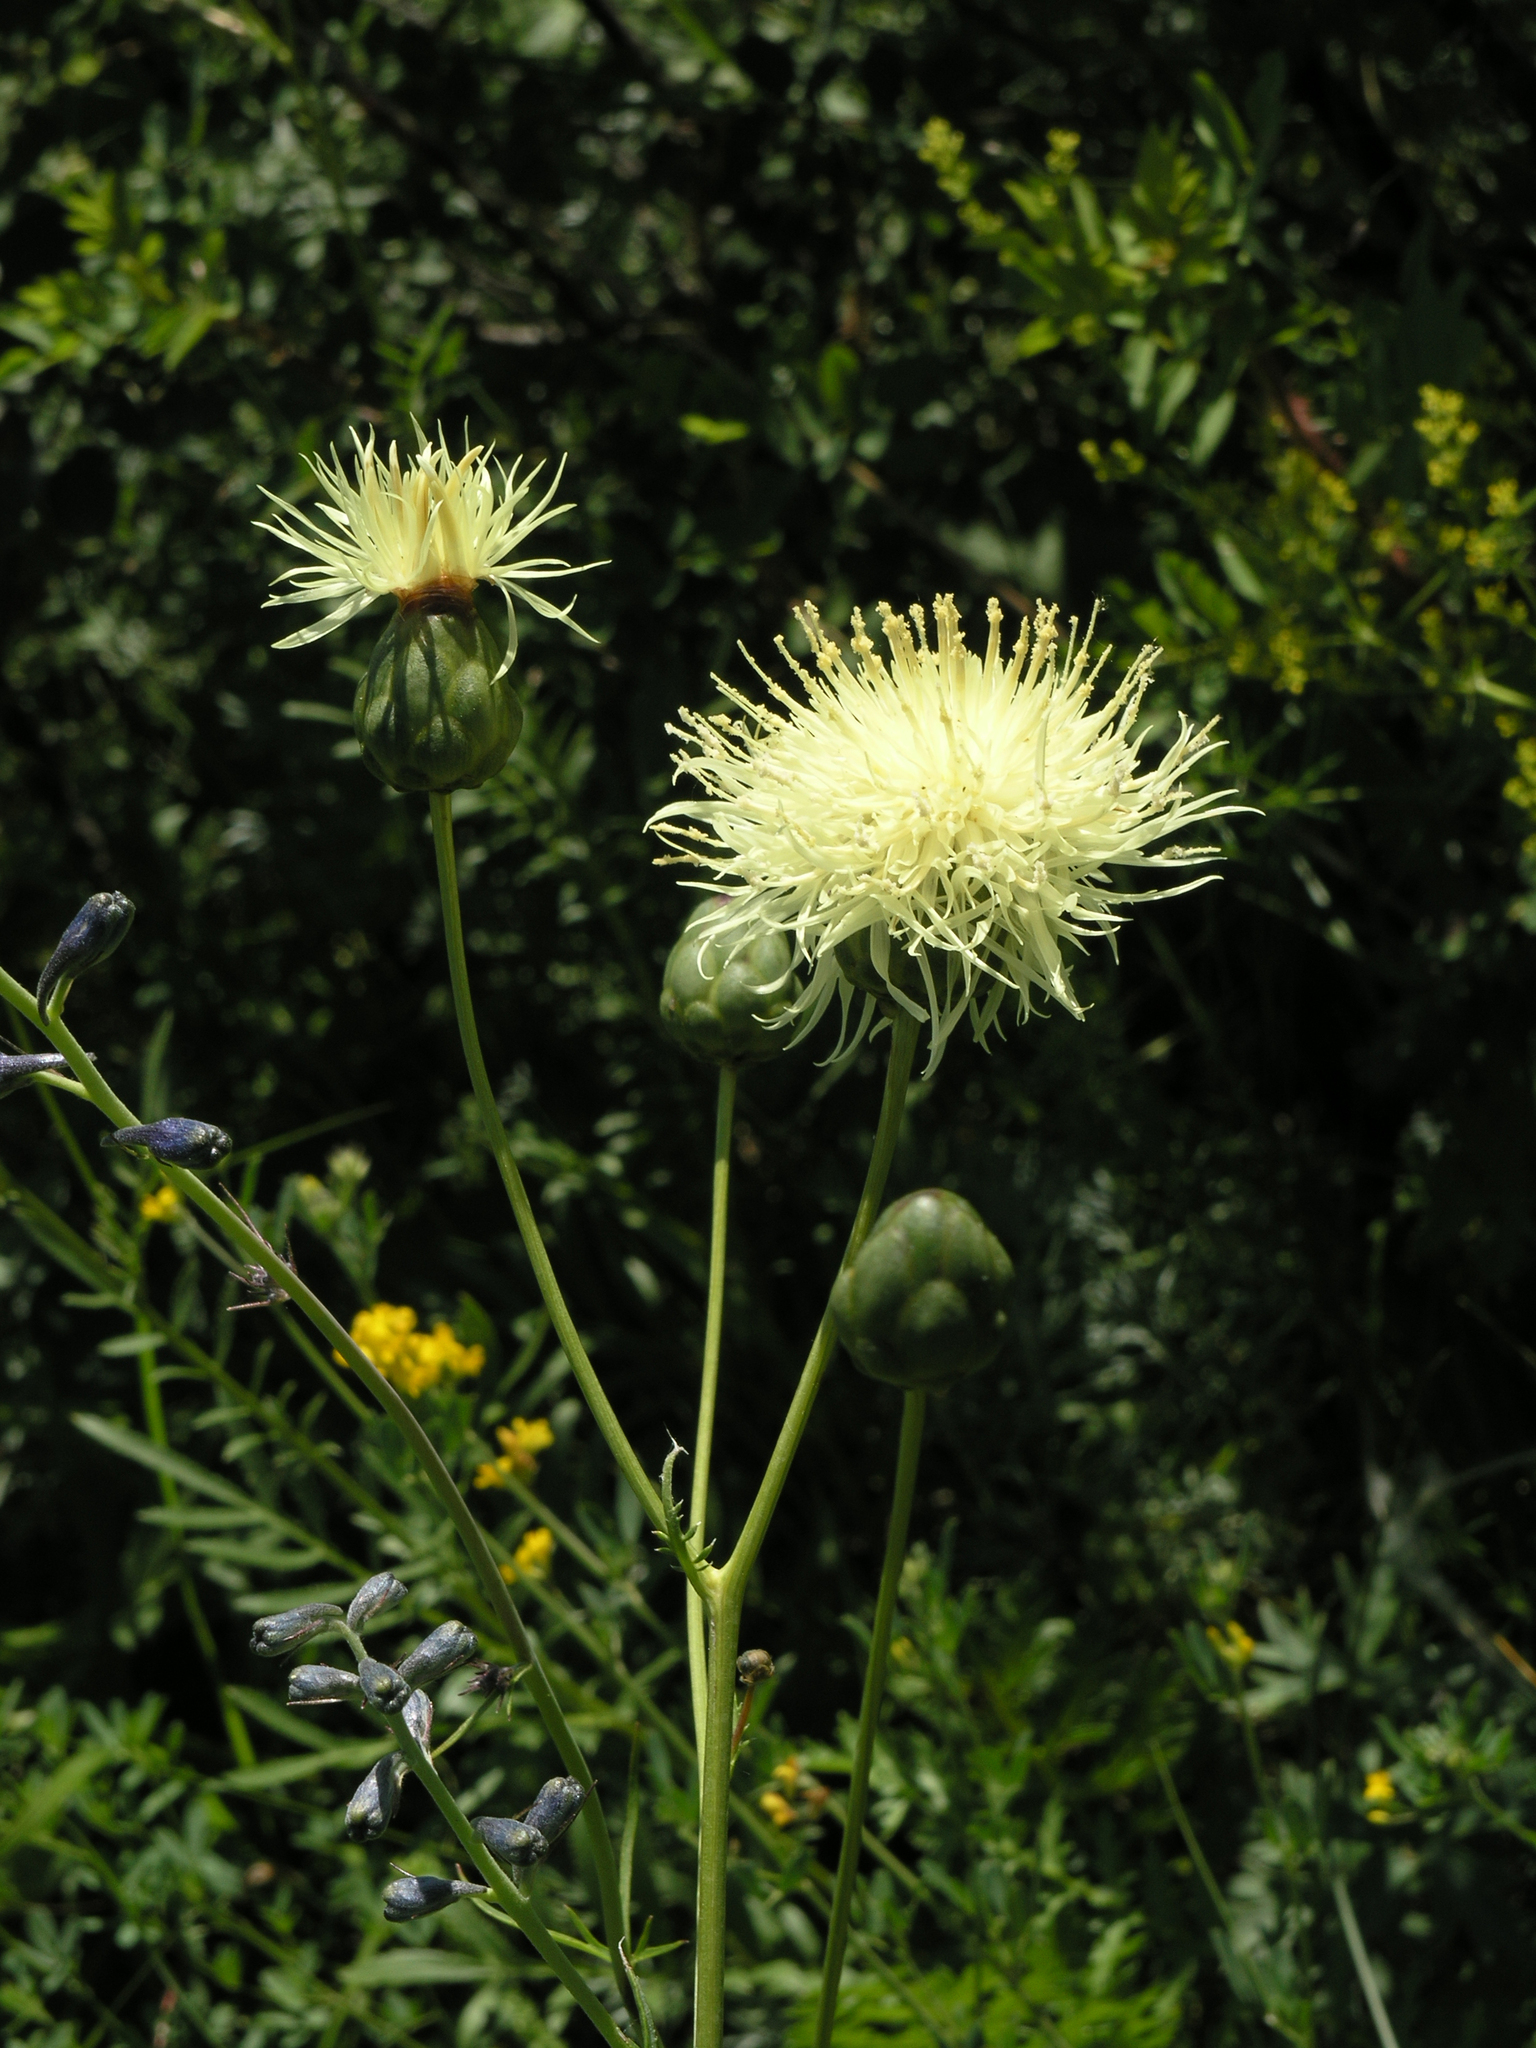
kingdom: Plantae
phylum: Tracheophyta
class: Magnoliopsida
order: Asterales
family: Asteraceae
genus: Rhaponticoides
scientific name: Rhaponticoides ruthenica
